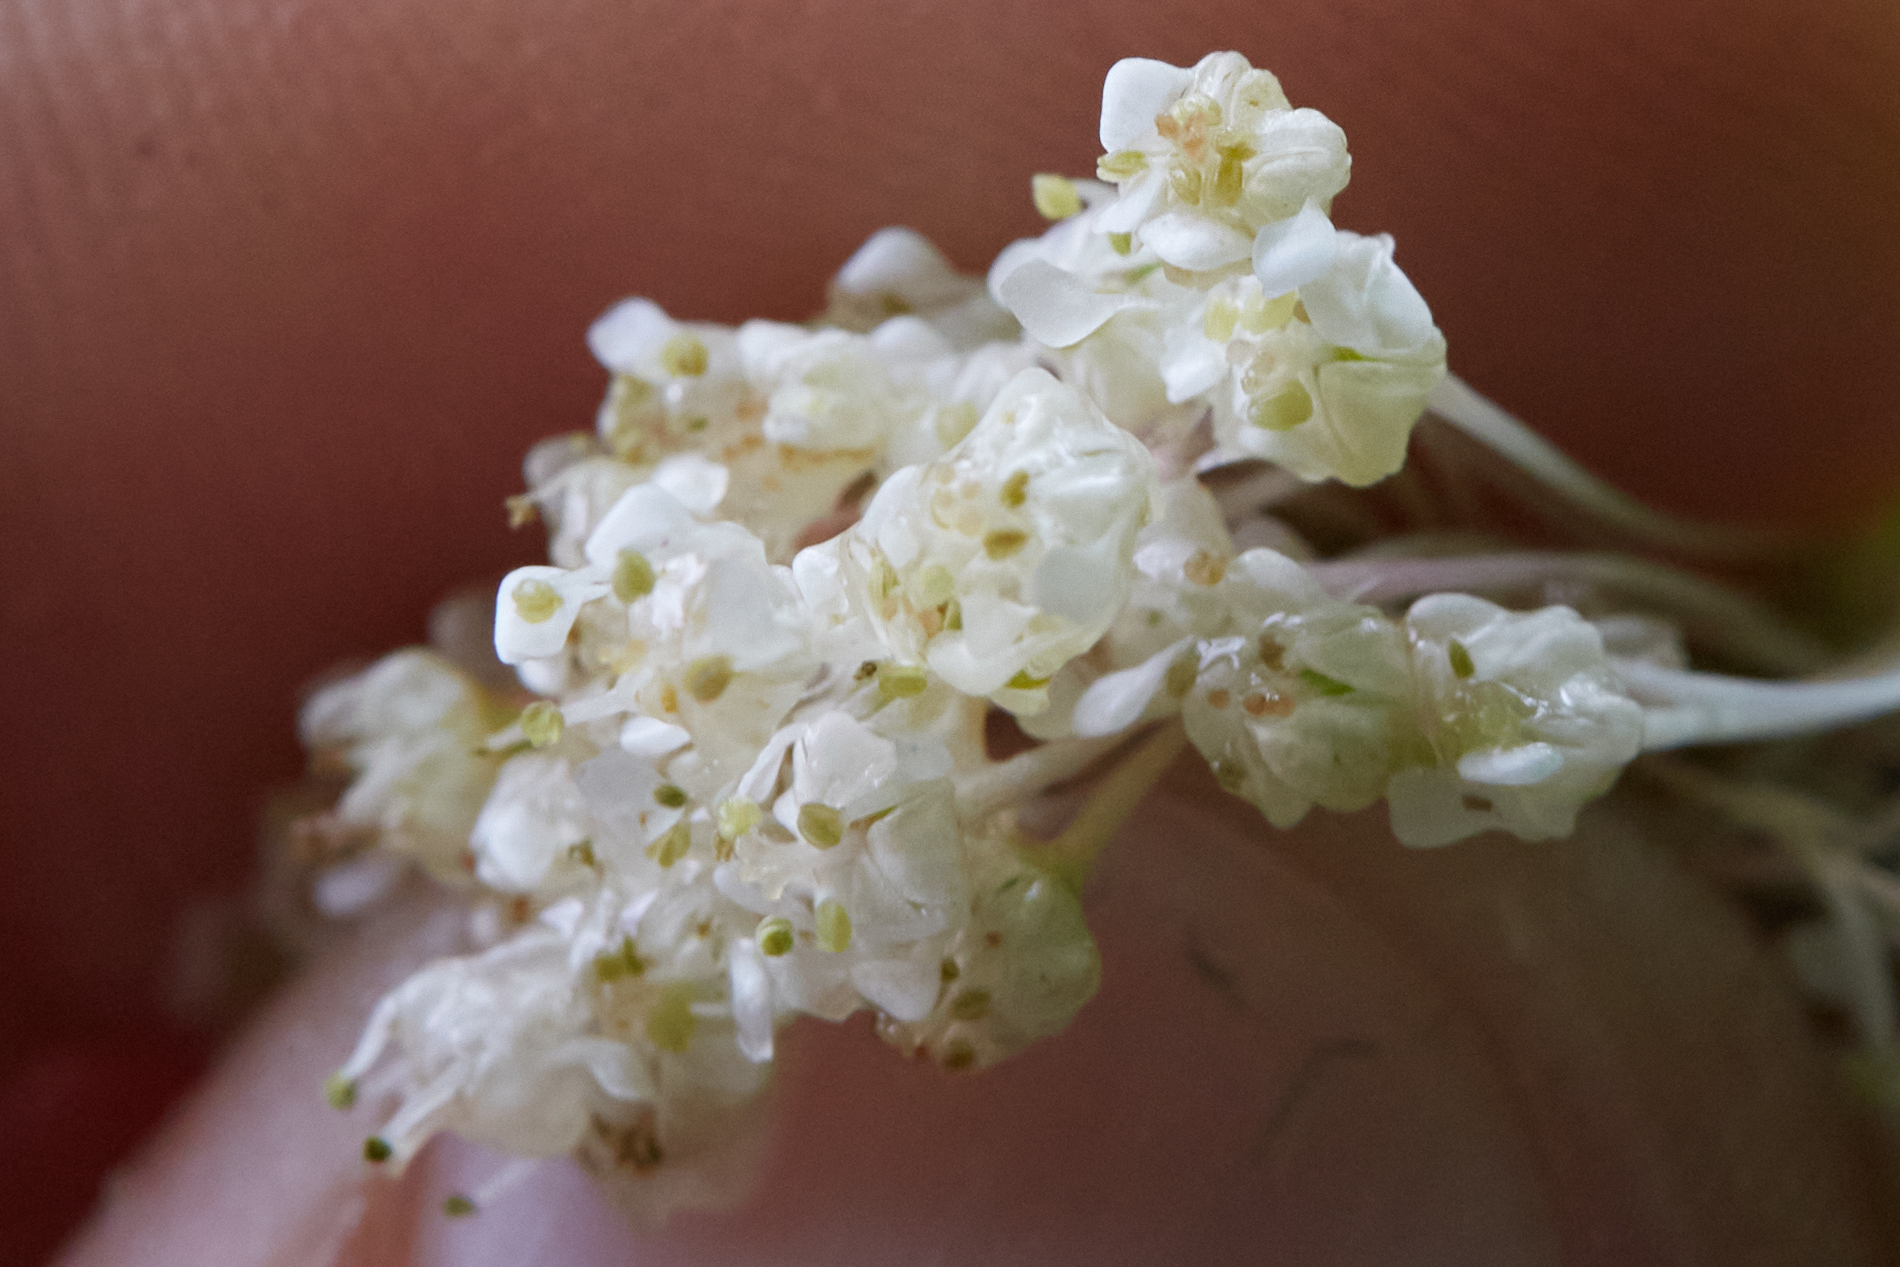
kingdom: Plantae
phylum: Tracheophyta
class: Magnoliopsida
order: Rosales
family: Rhamnaceae
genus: Ceanothus
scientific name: Ceanothus sanguineus
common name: Teatree
